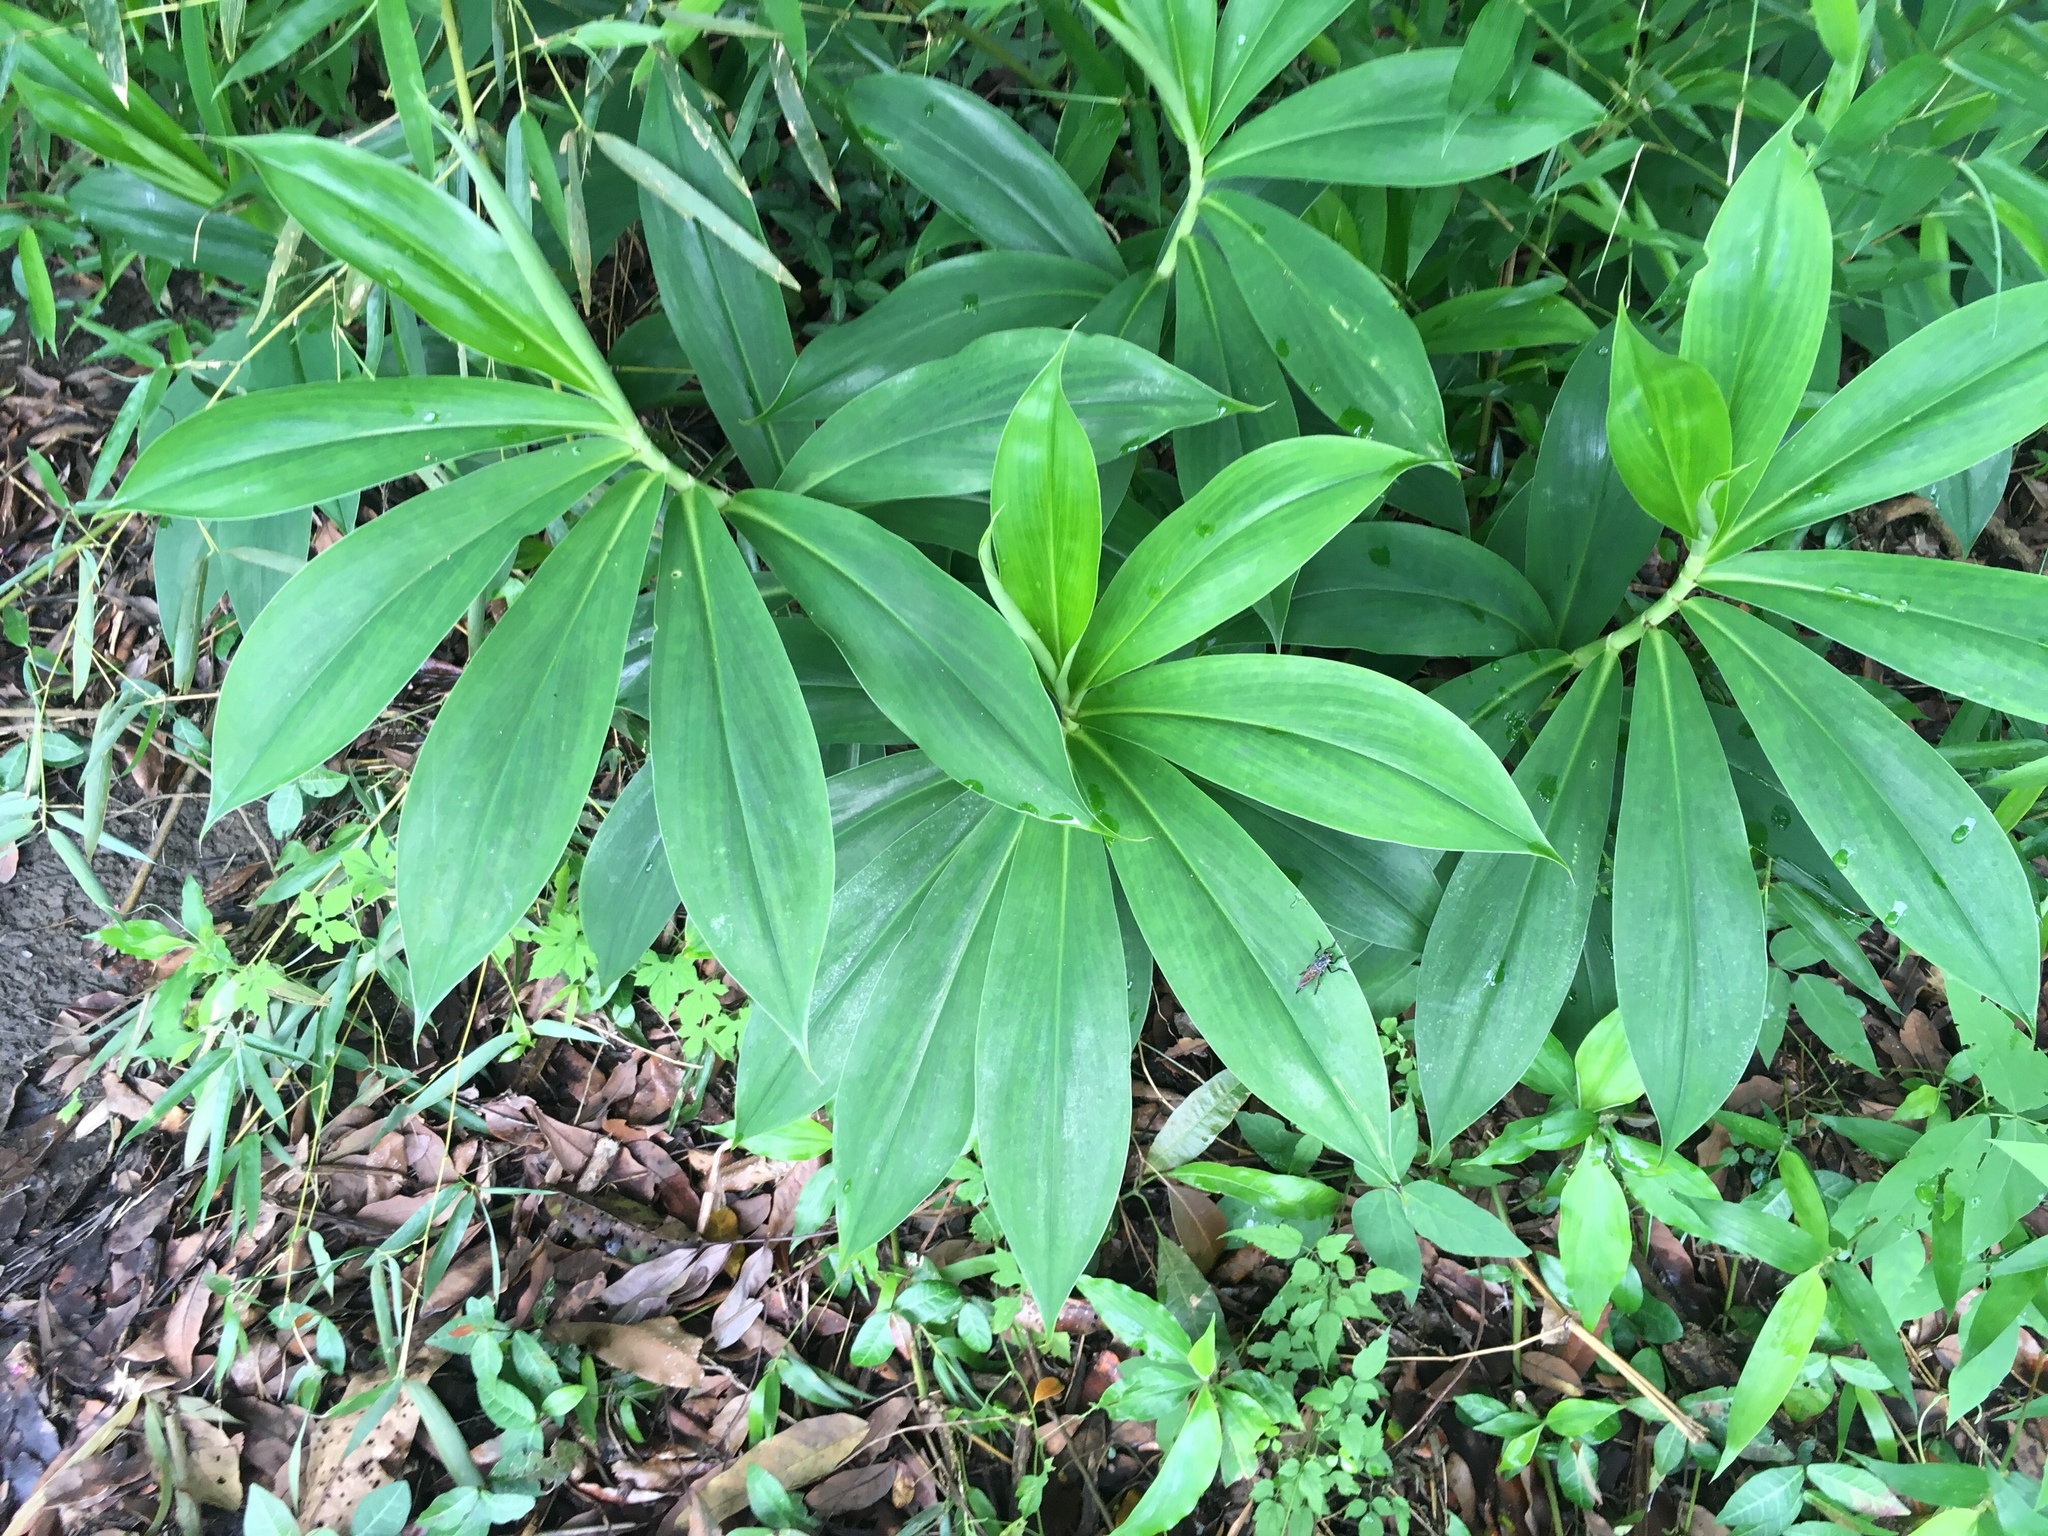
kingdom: Plantae
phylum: Tracheophyta
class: Liliopsida
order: Zingiberales
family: Costaceae
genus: Hellenia
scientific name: Hellenia speciosa
